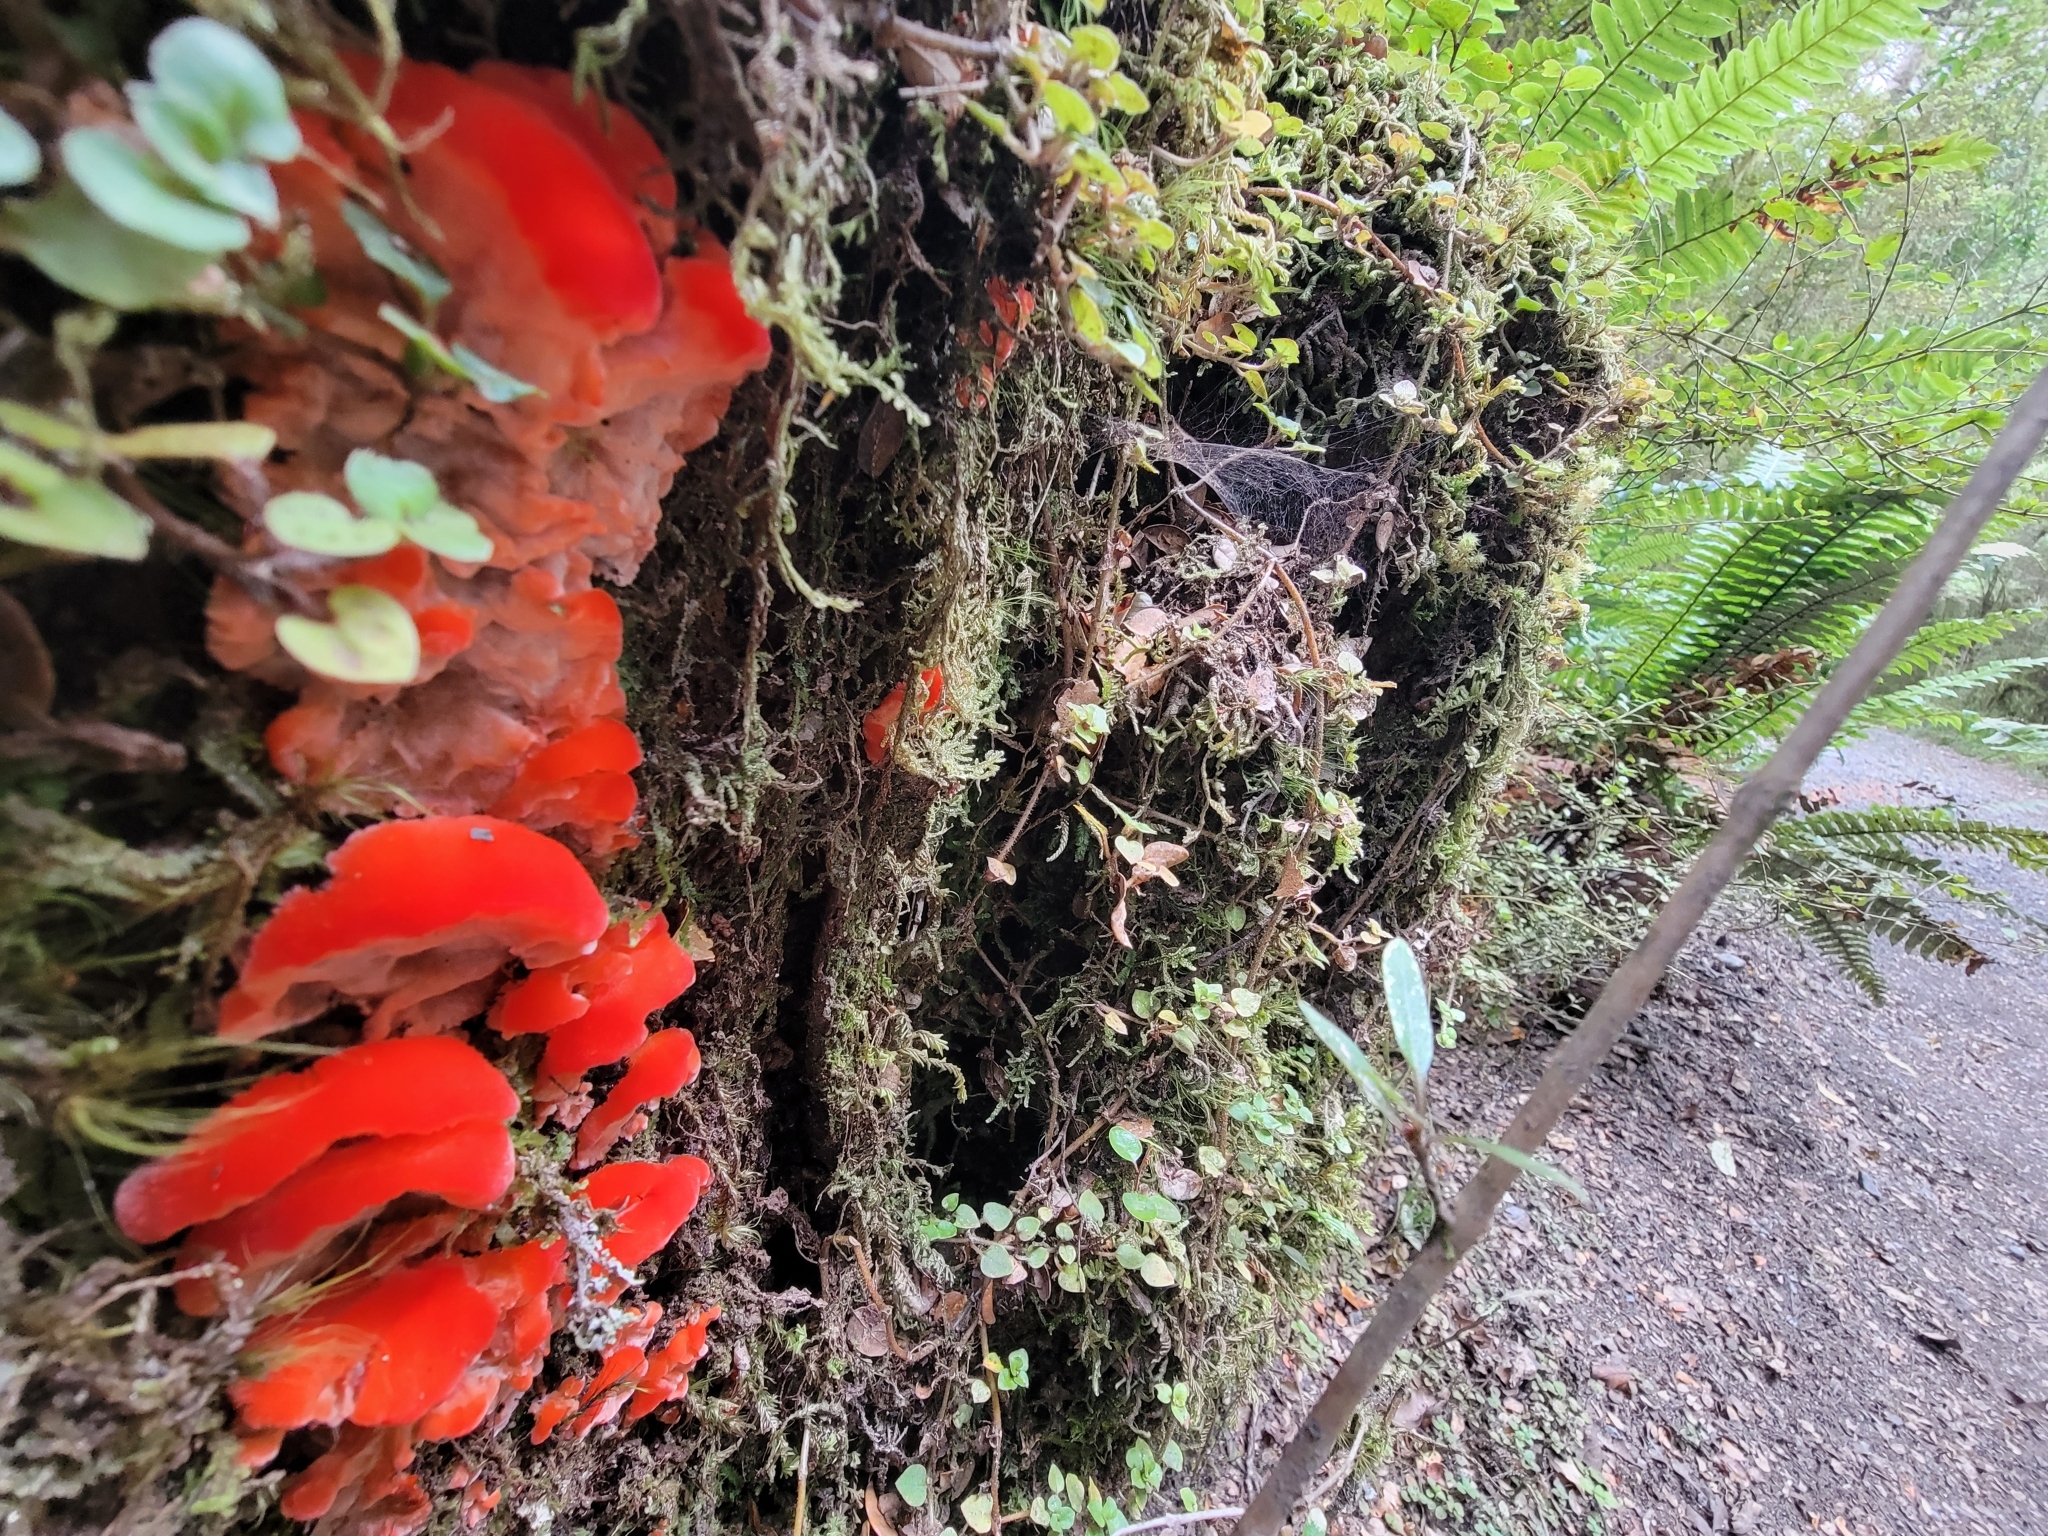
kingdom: Fungi
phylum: Basidiomycota
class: Agaricomycetes
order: Polyporales
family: Incrustoporiaceae
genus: Tyromyces
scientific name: Tyromyces pulcherrimus
